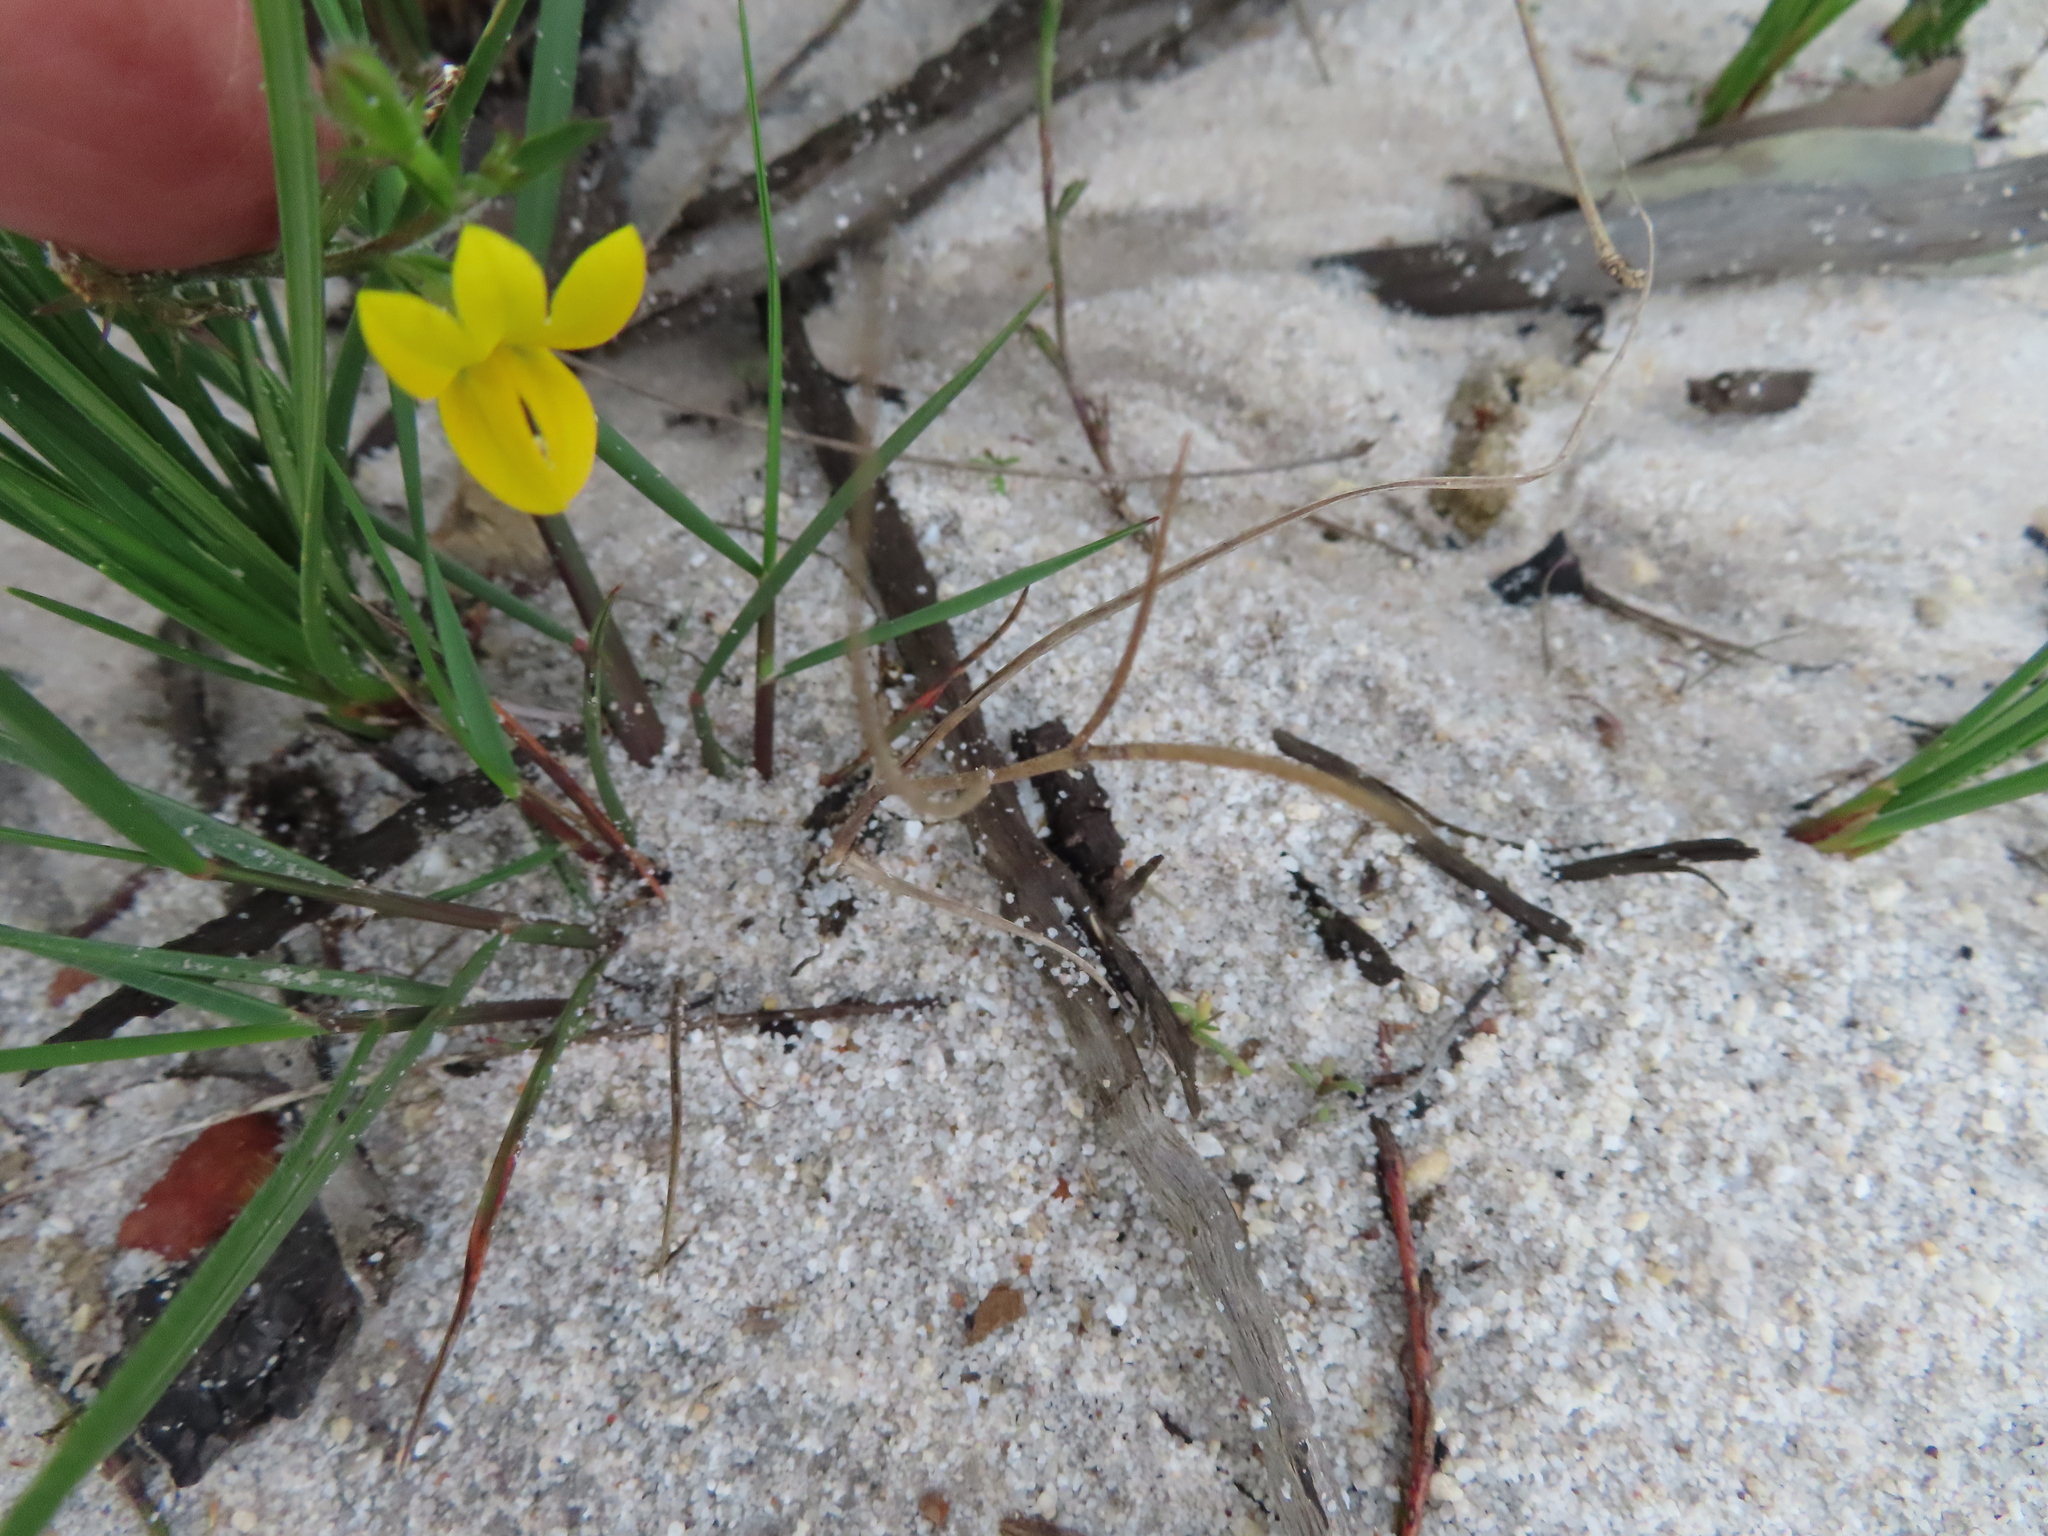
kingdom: Plantae
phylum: Tracheophyta
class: Magnoliopsida
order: Asterales
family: Campanulaceae
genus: Monopsis
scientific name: Monopsis lutea
